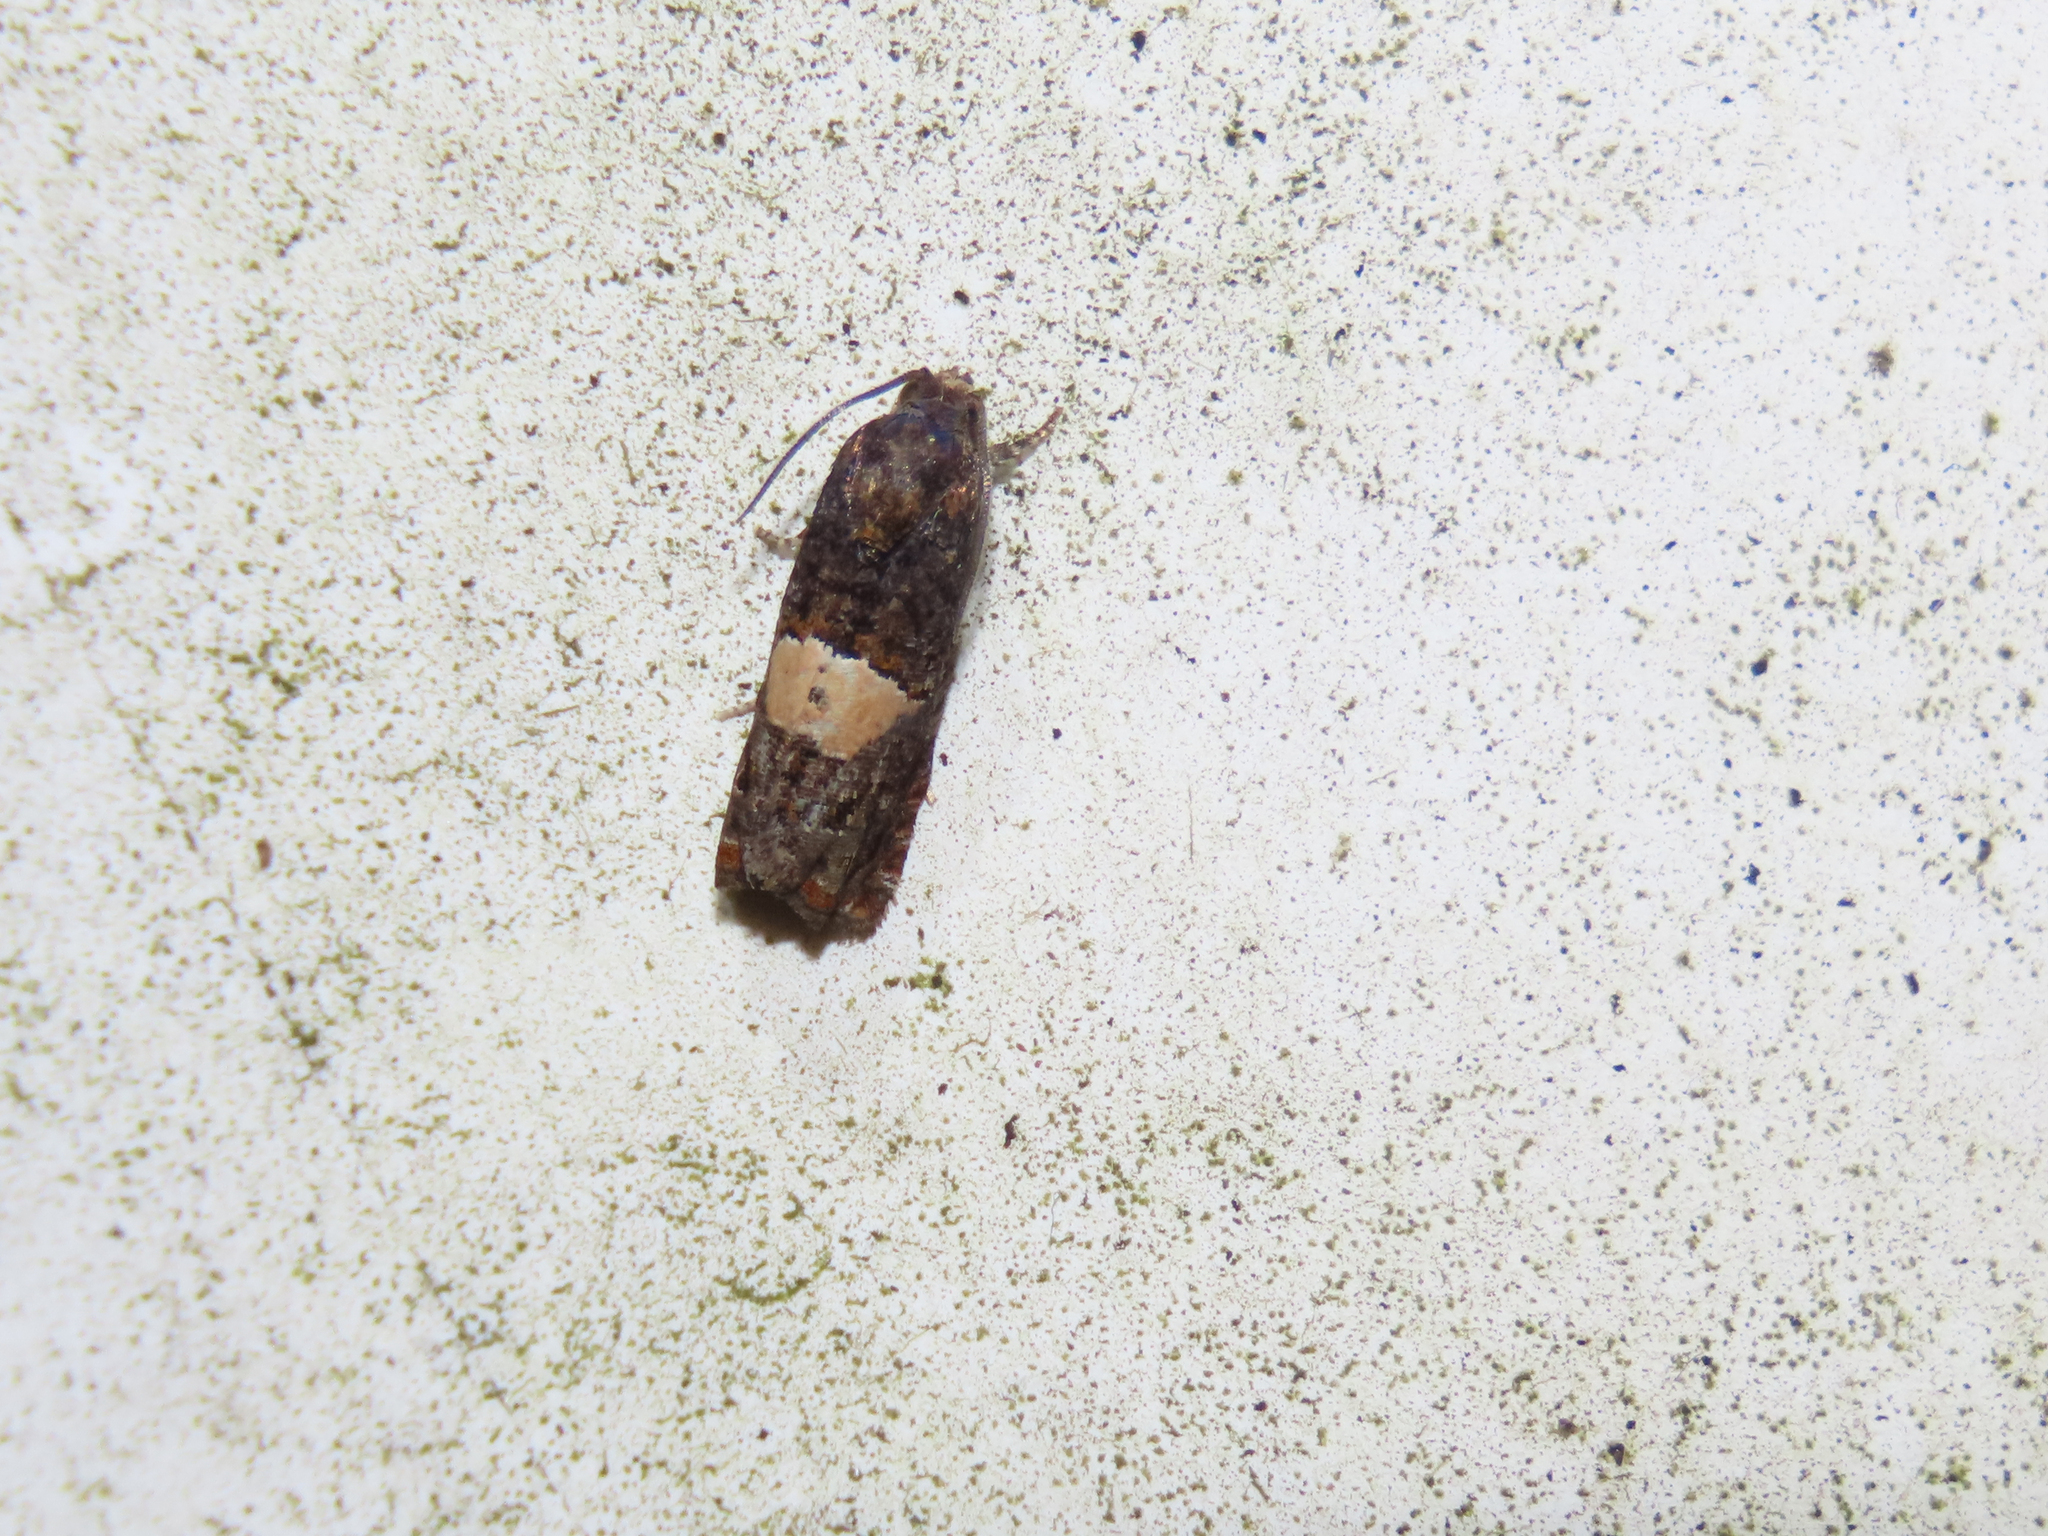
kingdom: Animalia
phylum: Arthropoda
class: Insecta
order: Lepidoptera
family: Tortricidae
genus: Epiblema
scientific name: Epiblema glenni
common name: Glenn's epiblema
